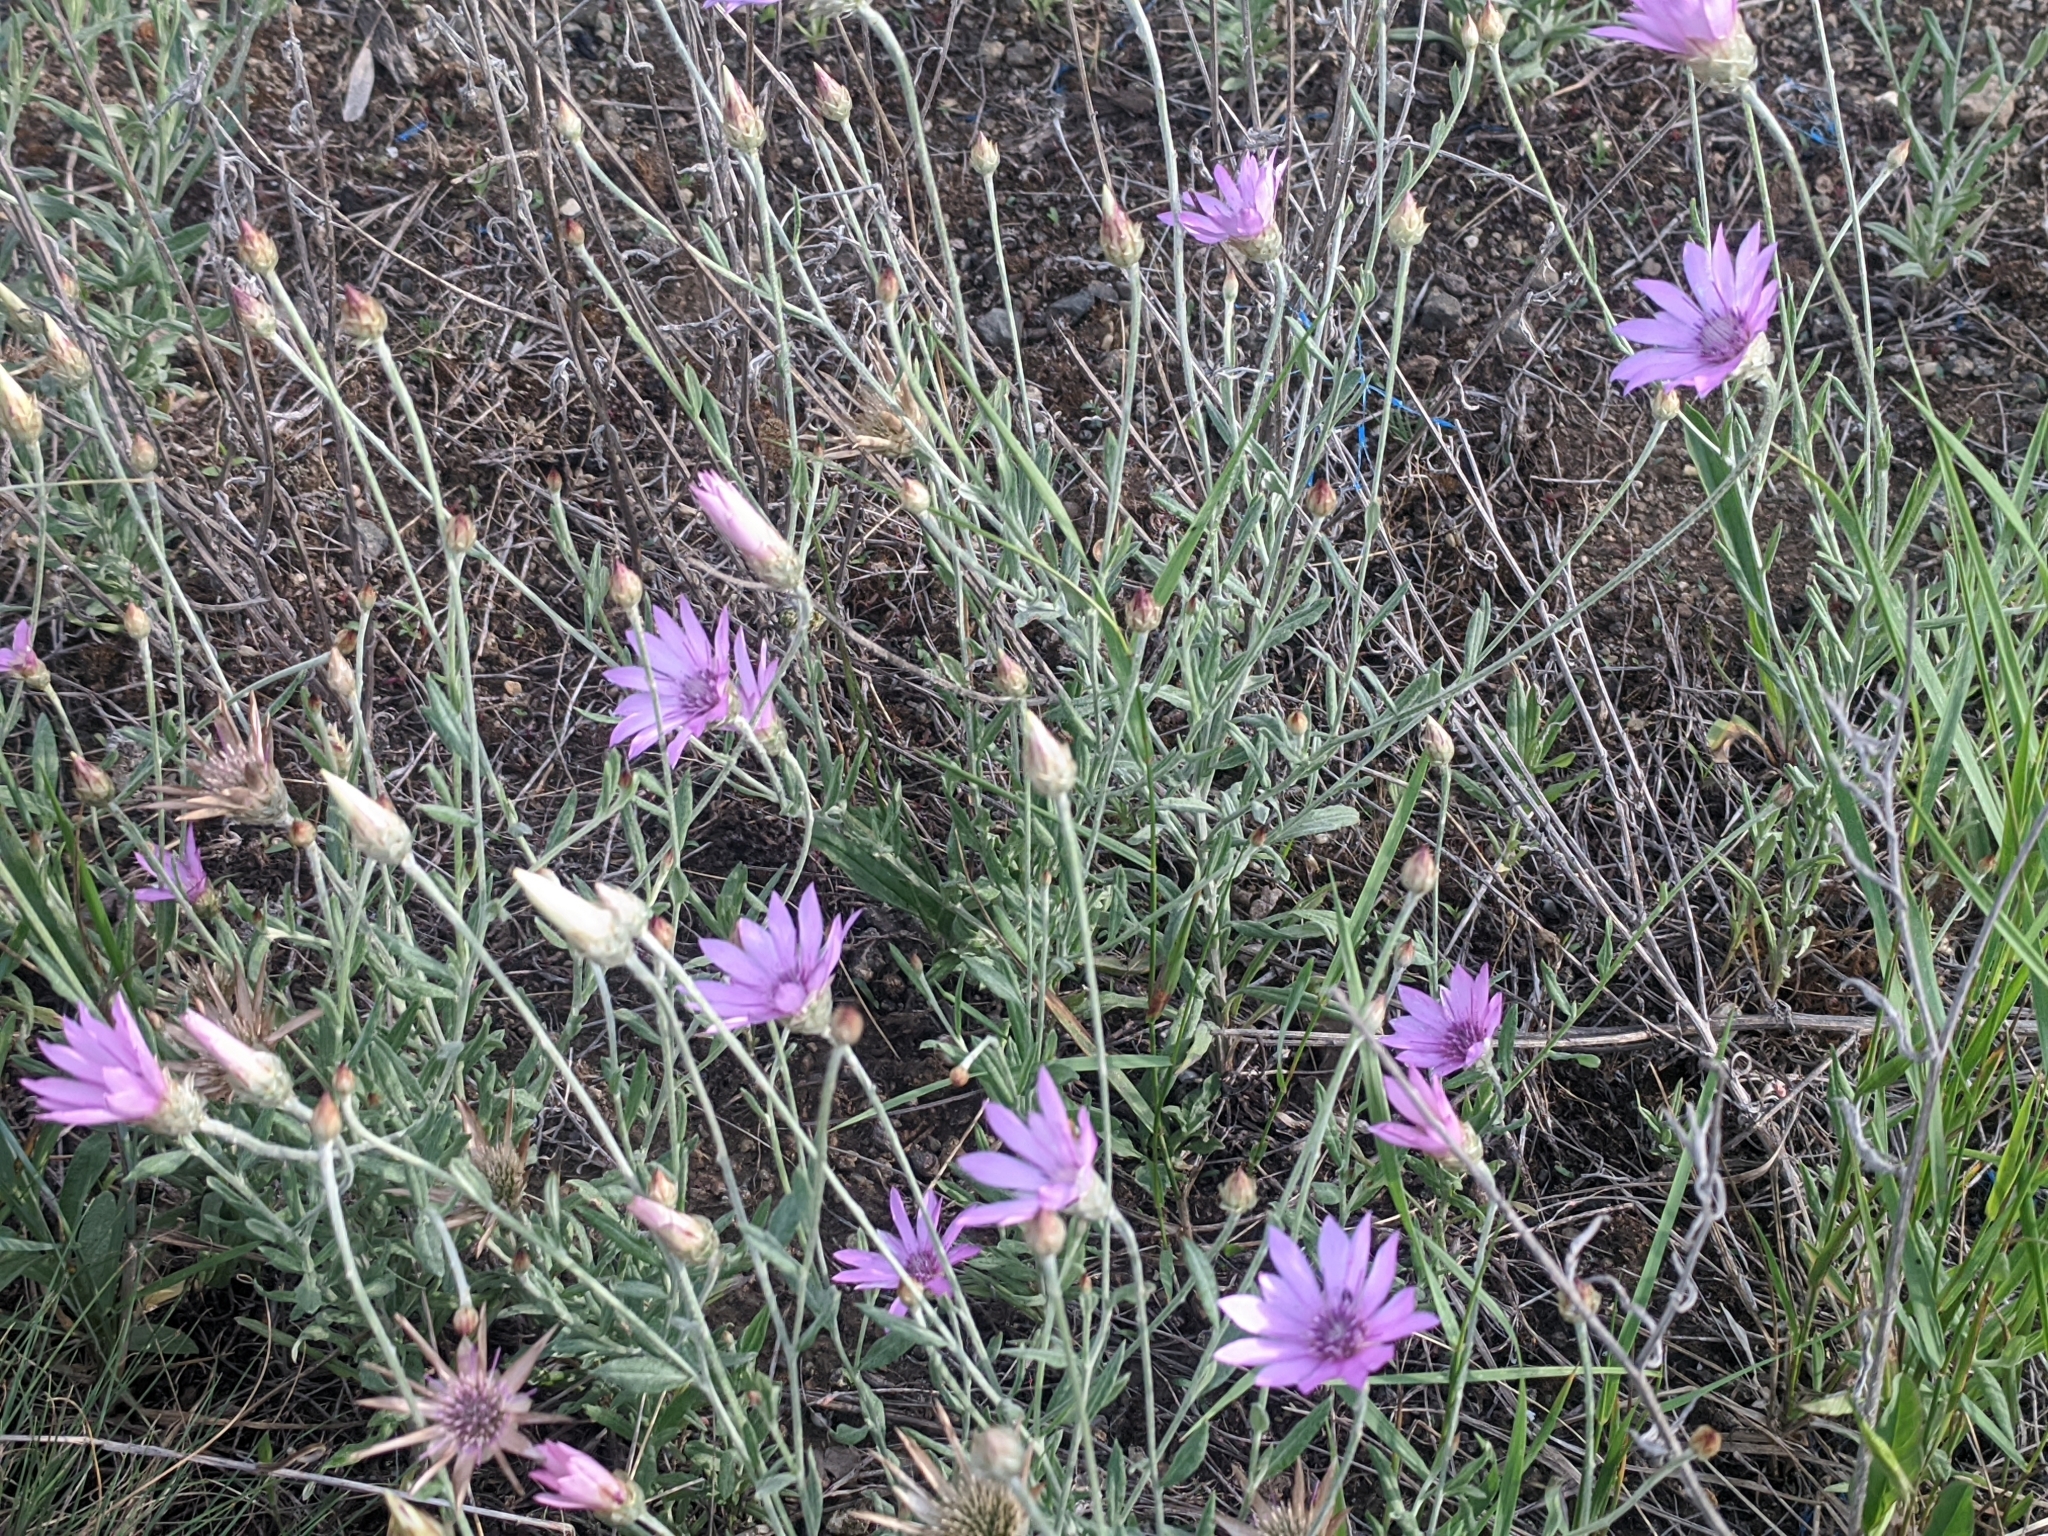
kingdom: Plantae
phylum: Tracheophyta
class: Magnoliopsida
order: Asterales
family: Asteraceae
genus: Xeranthemum
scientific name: Xeranthemum annuum
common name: Immortelle
